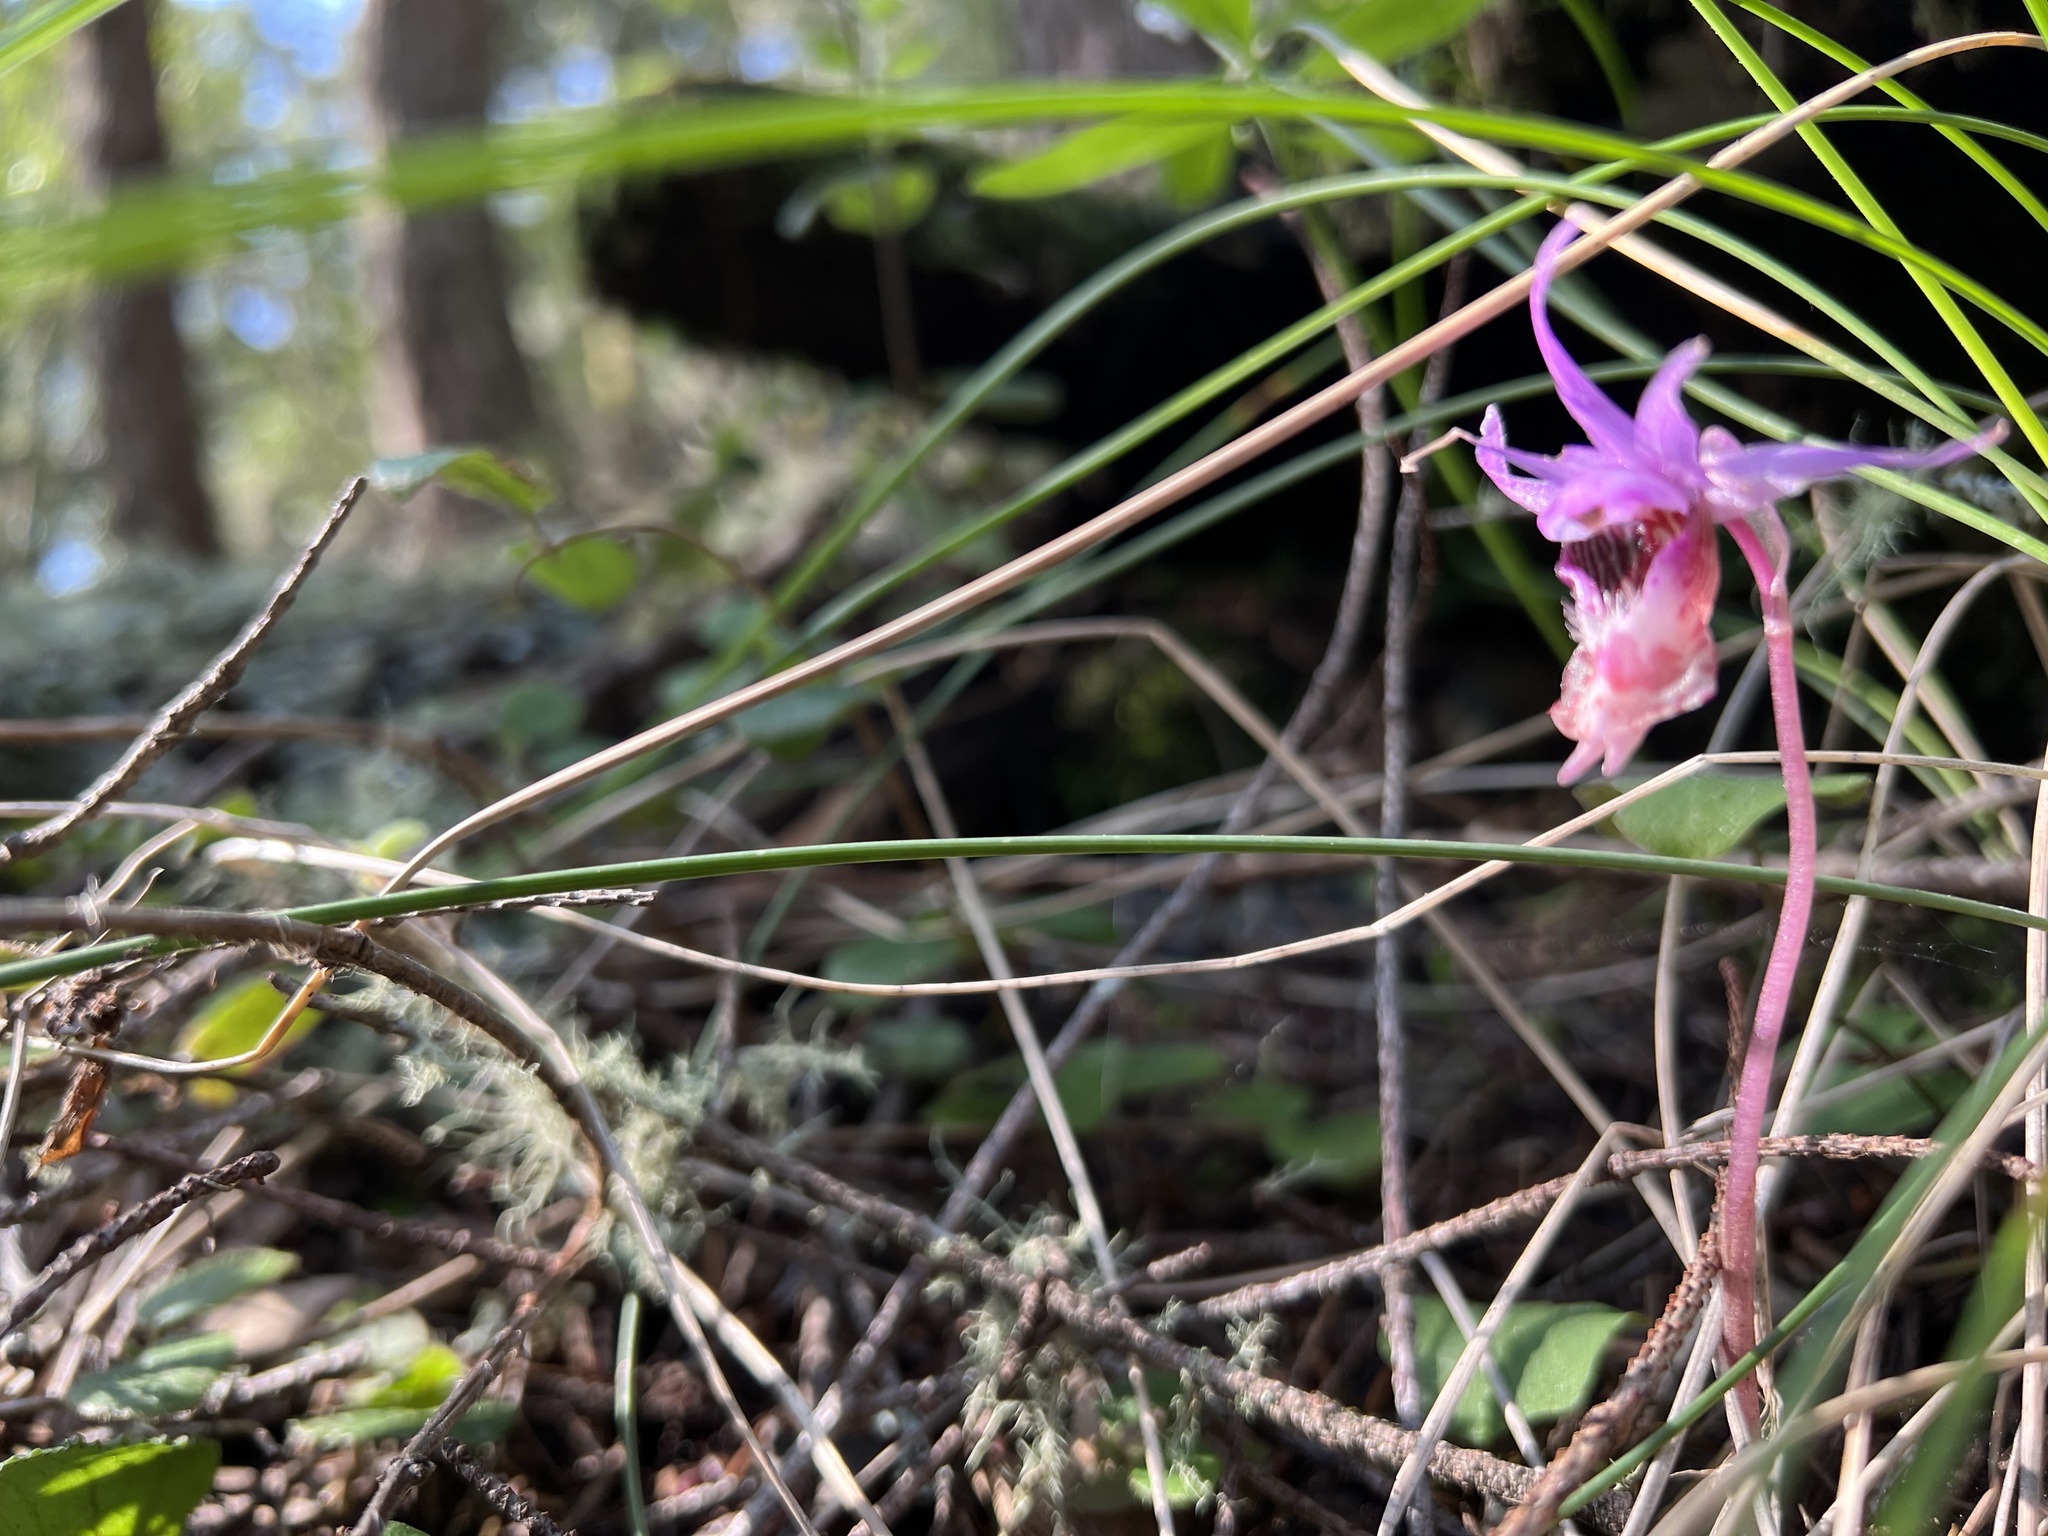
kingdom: Plantae
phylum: Tracheophyta
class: Liliopsida
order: Asparagales
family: Orchidaceae
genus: Calypso
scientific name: Calypso bulbosa
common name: Calypso
